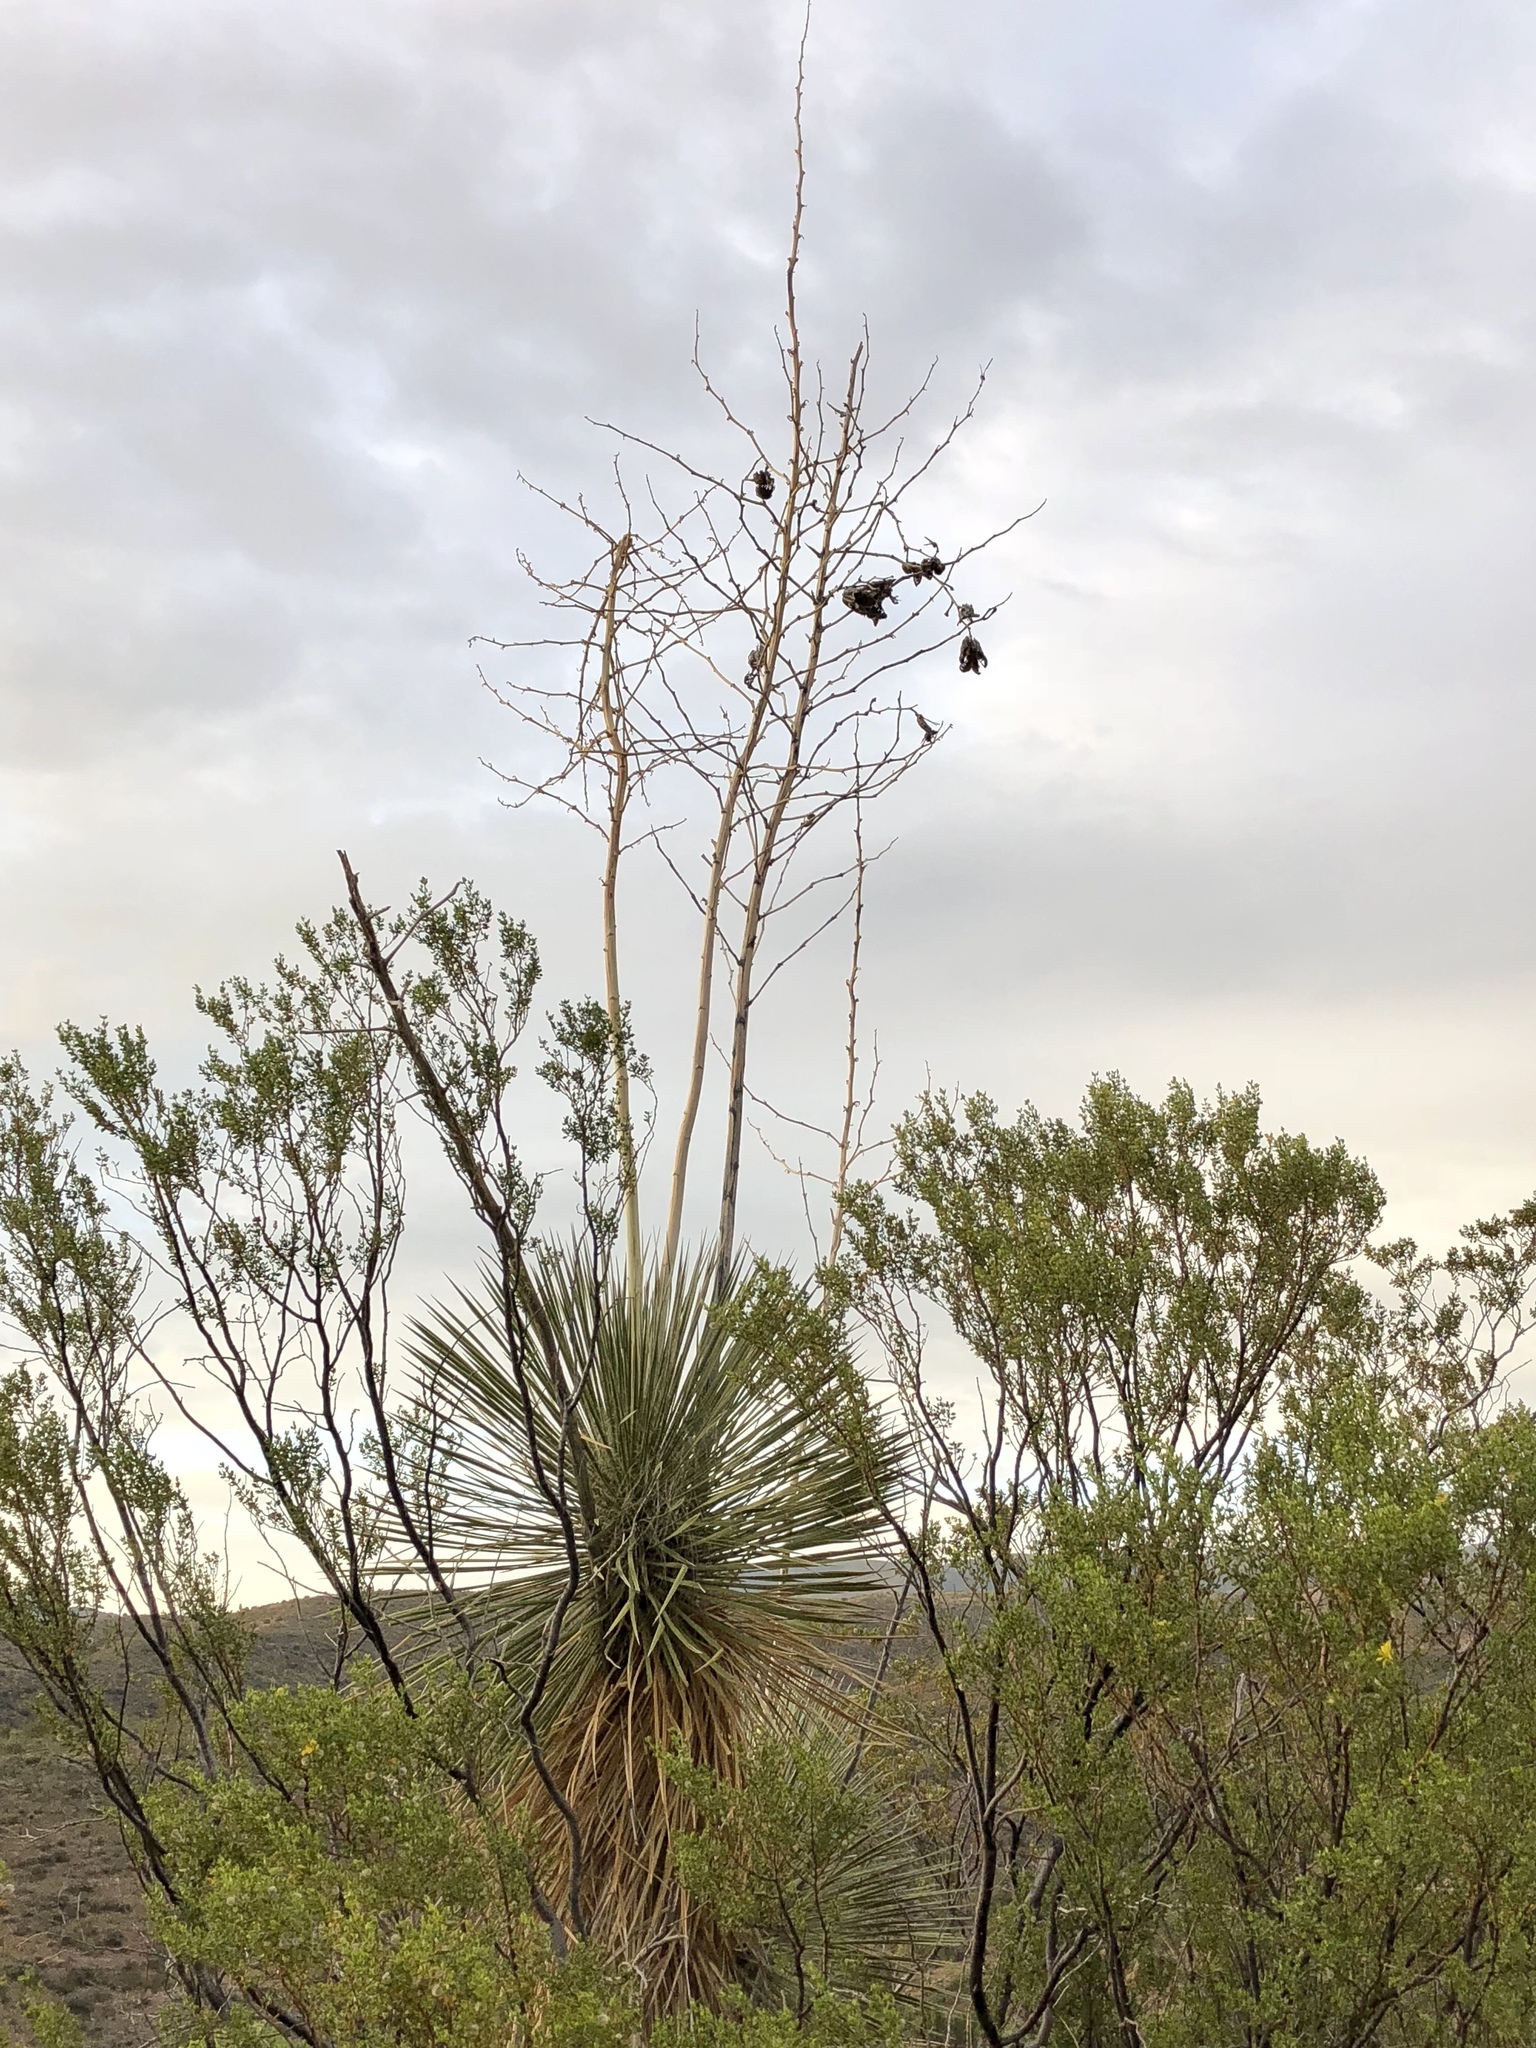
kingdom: Plantae
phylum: Tracheophyta
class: Liliopsida
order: Asparagales
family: Asparagaceae
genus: Yucca
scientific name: Yucca elata
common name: Palmella
